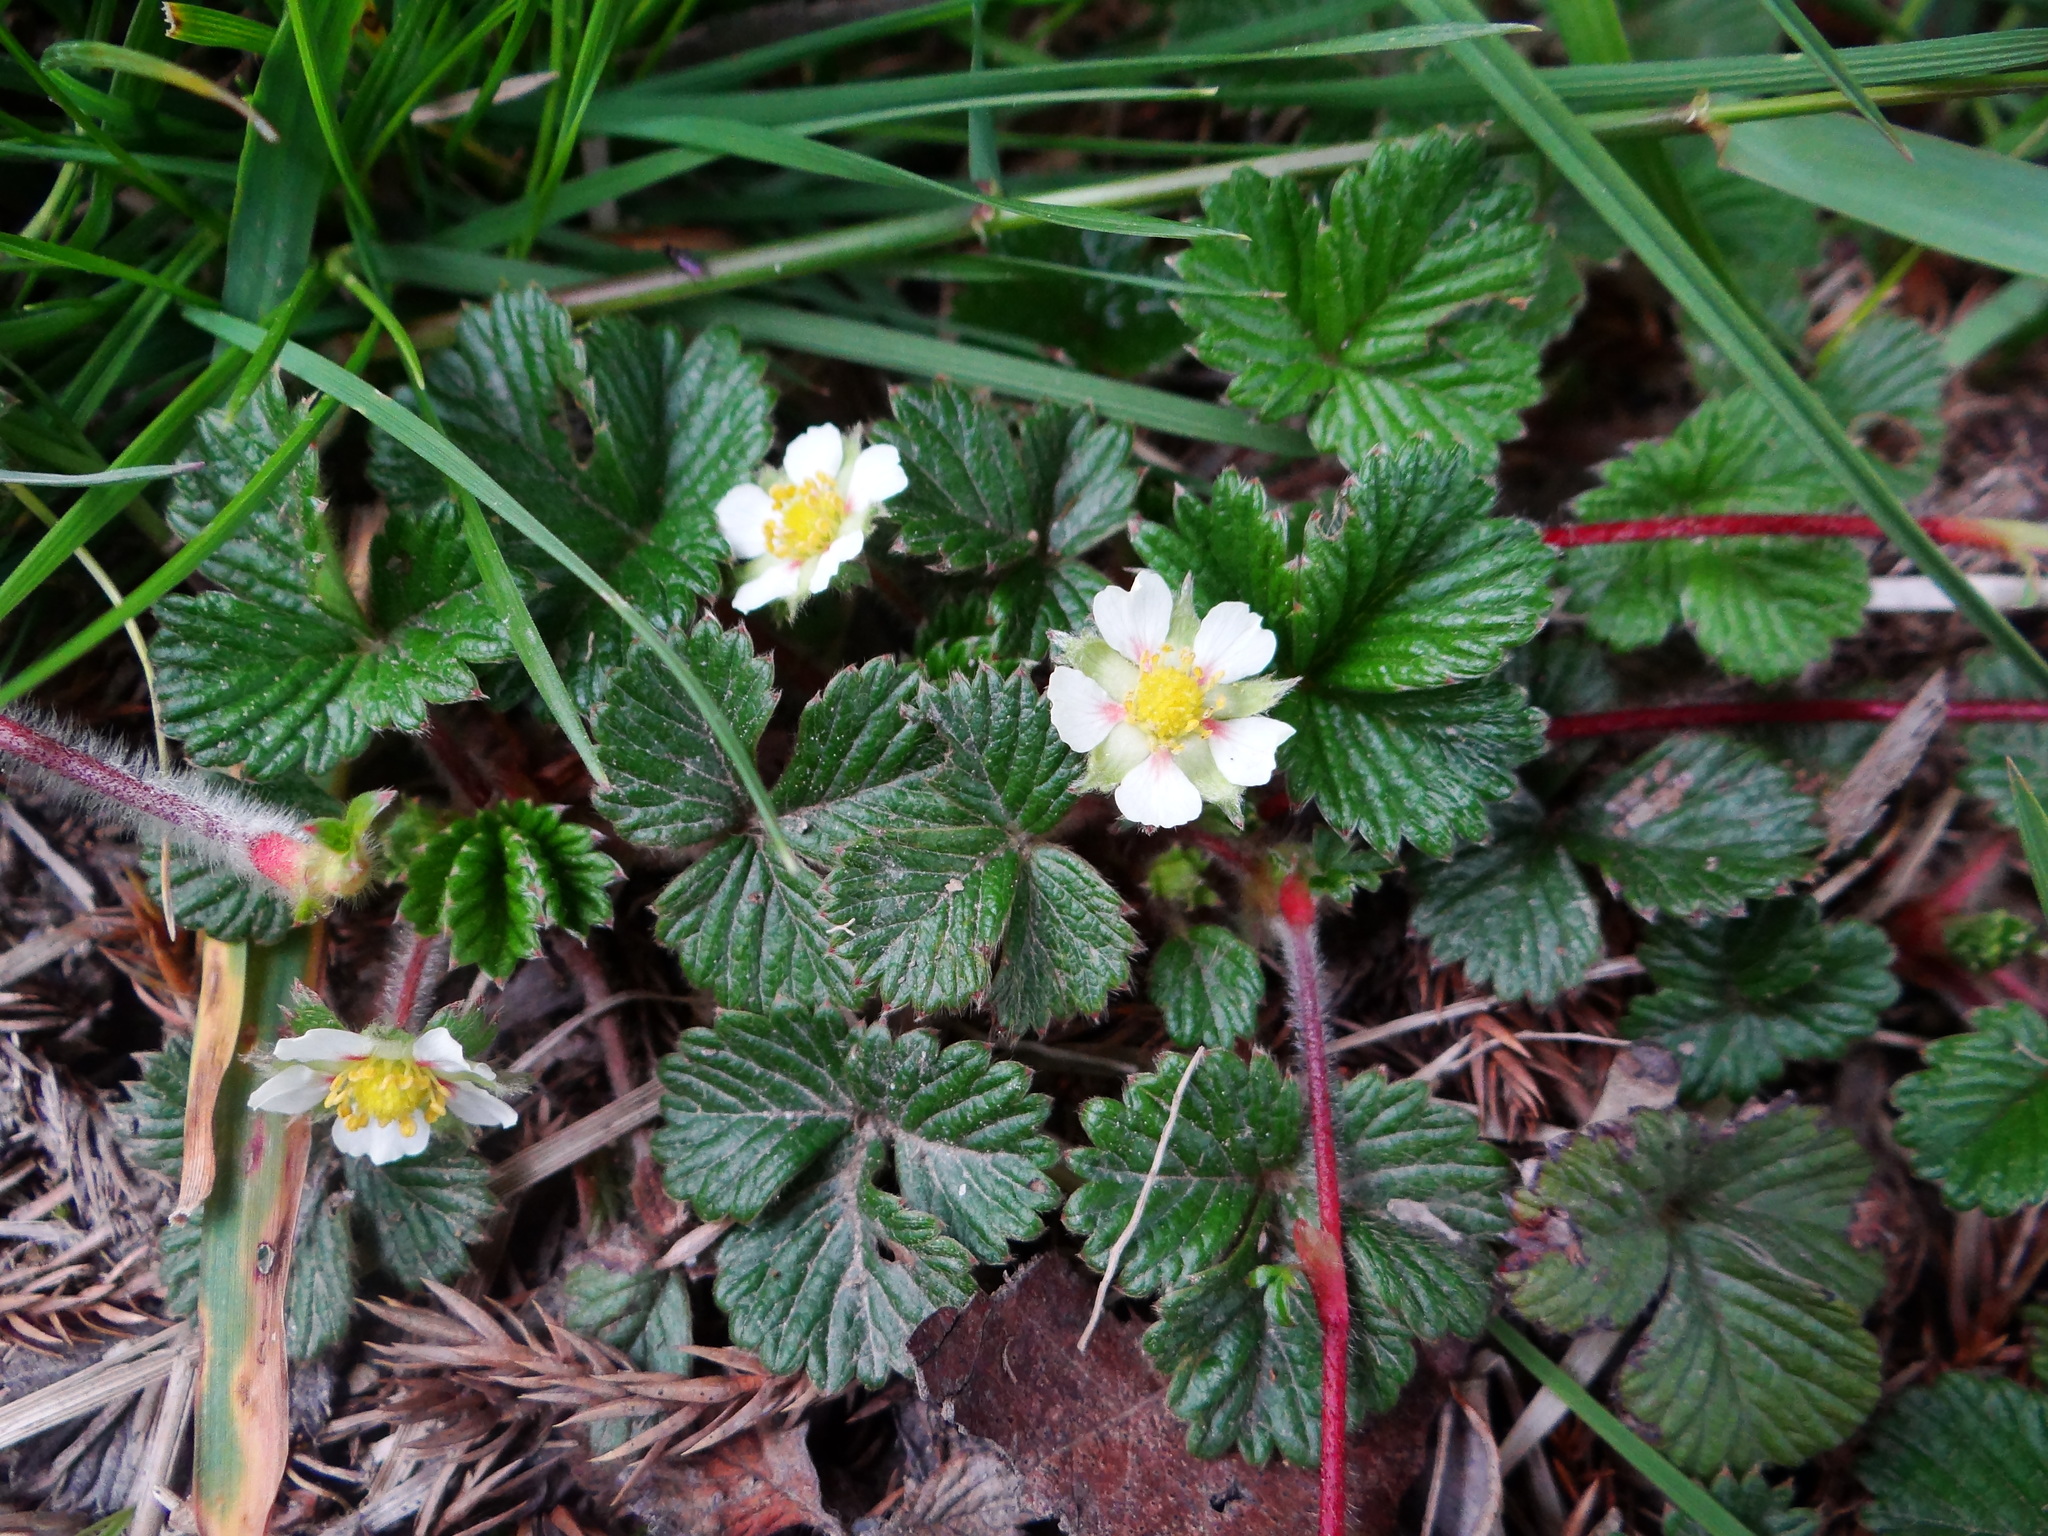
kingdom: Plantae
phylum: Tracheophyta
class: Magnoliopsida
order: Rosales
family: Rosaceae
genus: Fragaria
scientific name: Fragaria nilgerrensis
